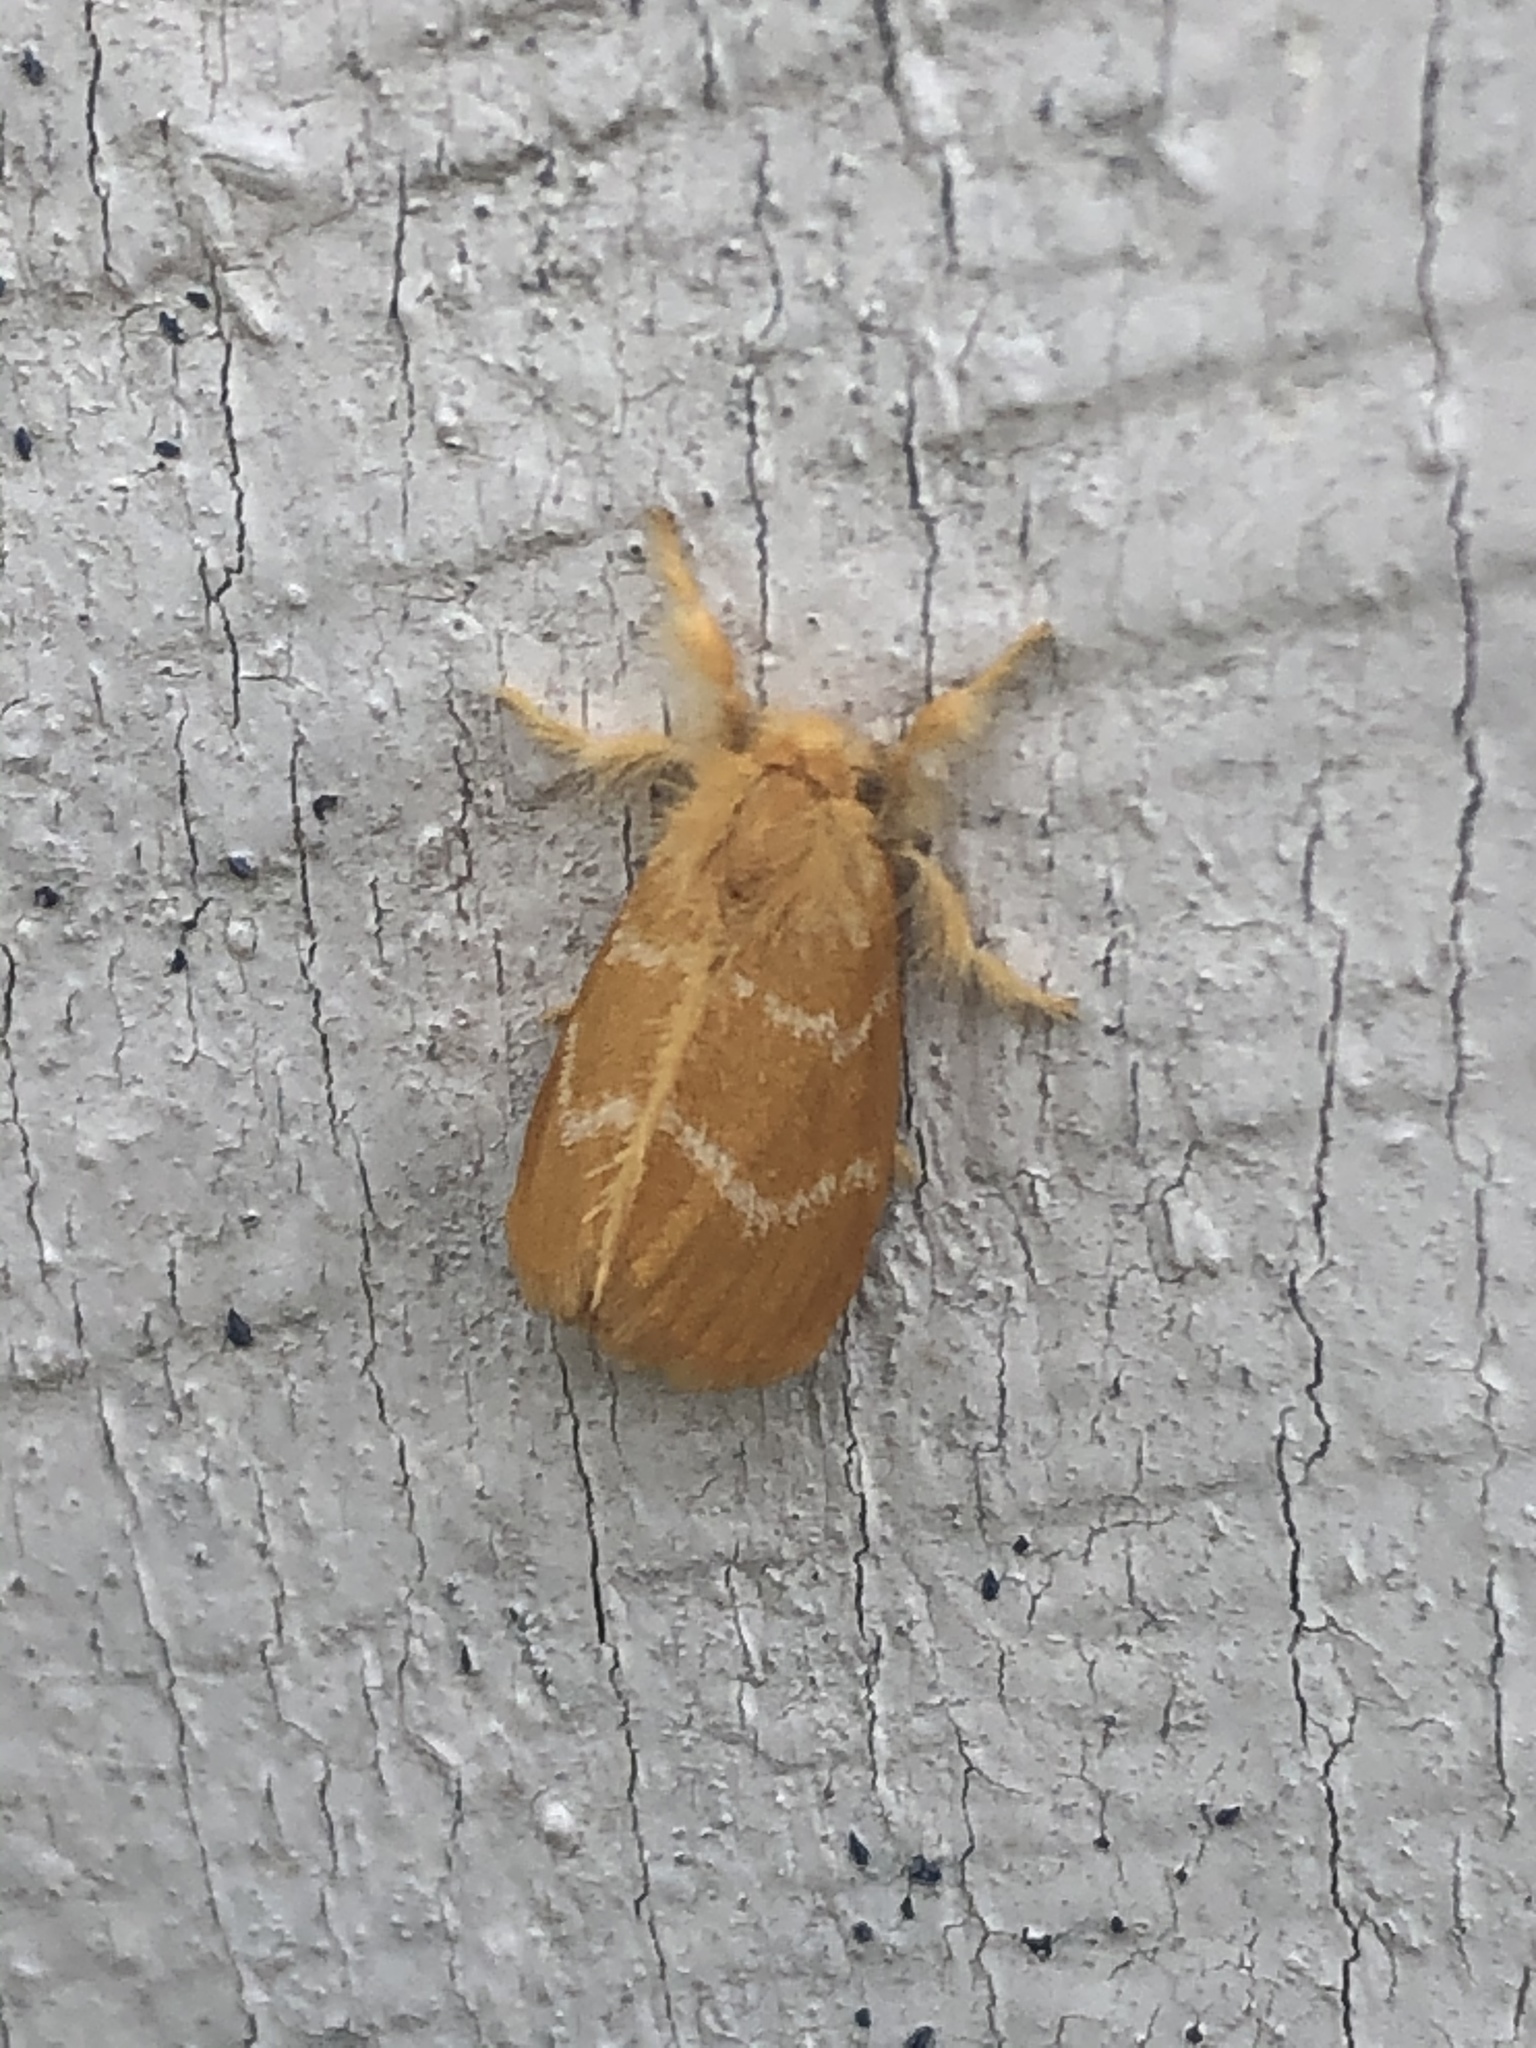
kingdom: Animalia
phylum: Arthropoda
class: Insecta
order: Lepidoptera
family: Erebidae
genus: Euproctis
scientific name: Euproctis lutea
